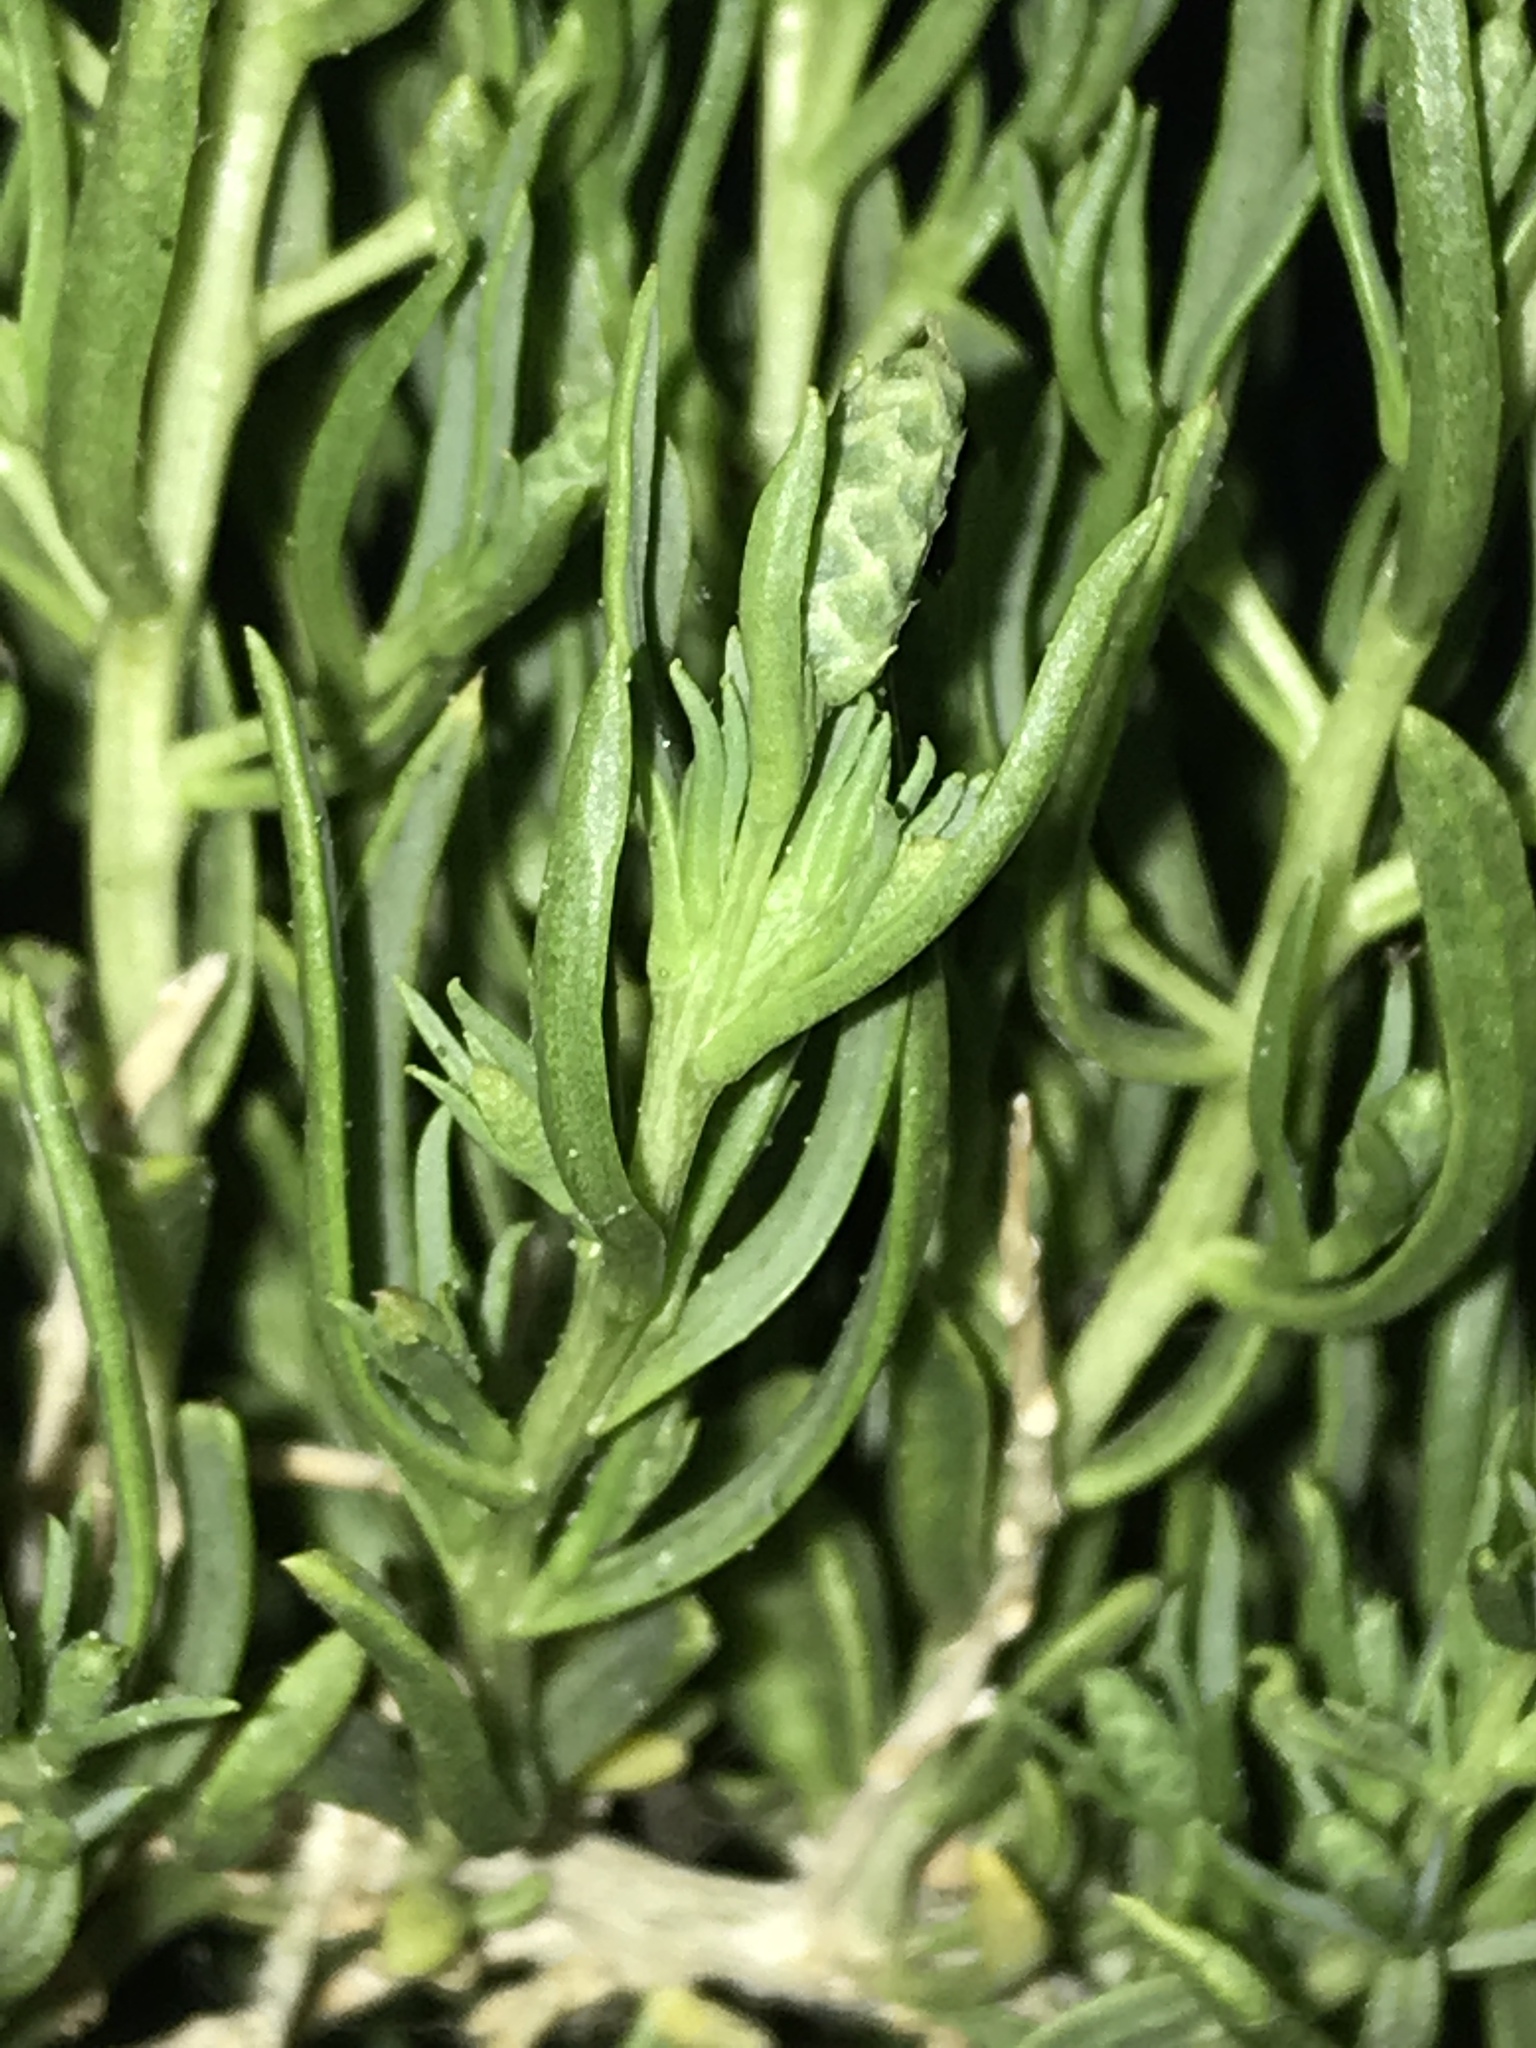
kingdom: Plantae
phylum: Tracheophyta
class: Magnoliopsida
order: Caryophyllales
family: Sarcobataceae
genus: Sarcobatus
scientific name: Sarcobatus vermiculatus
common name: Greasewood
